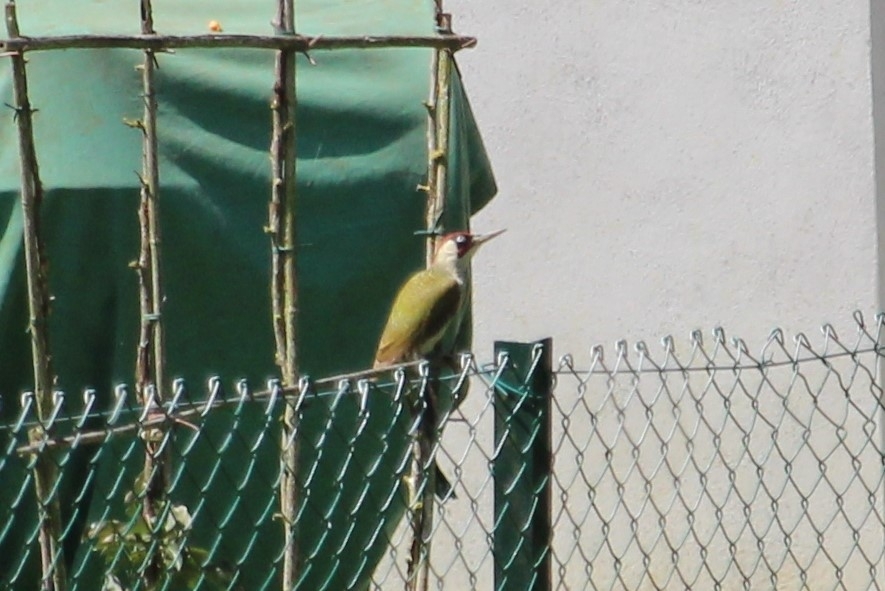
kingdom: Animalia
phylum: Chordata
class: Aves
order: Piciformes
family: Picidae
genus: Picus
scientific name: Picus viridis
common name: European green woodpecker
